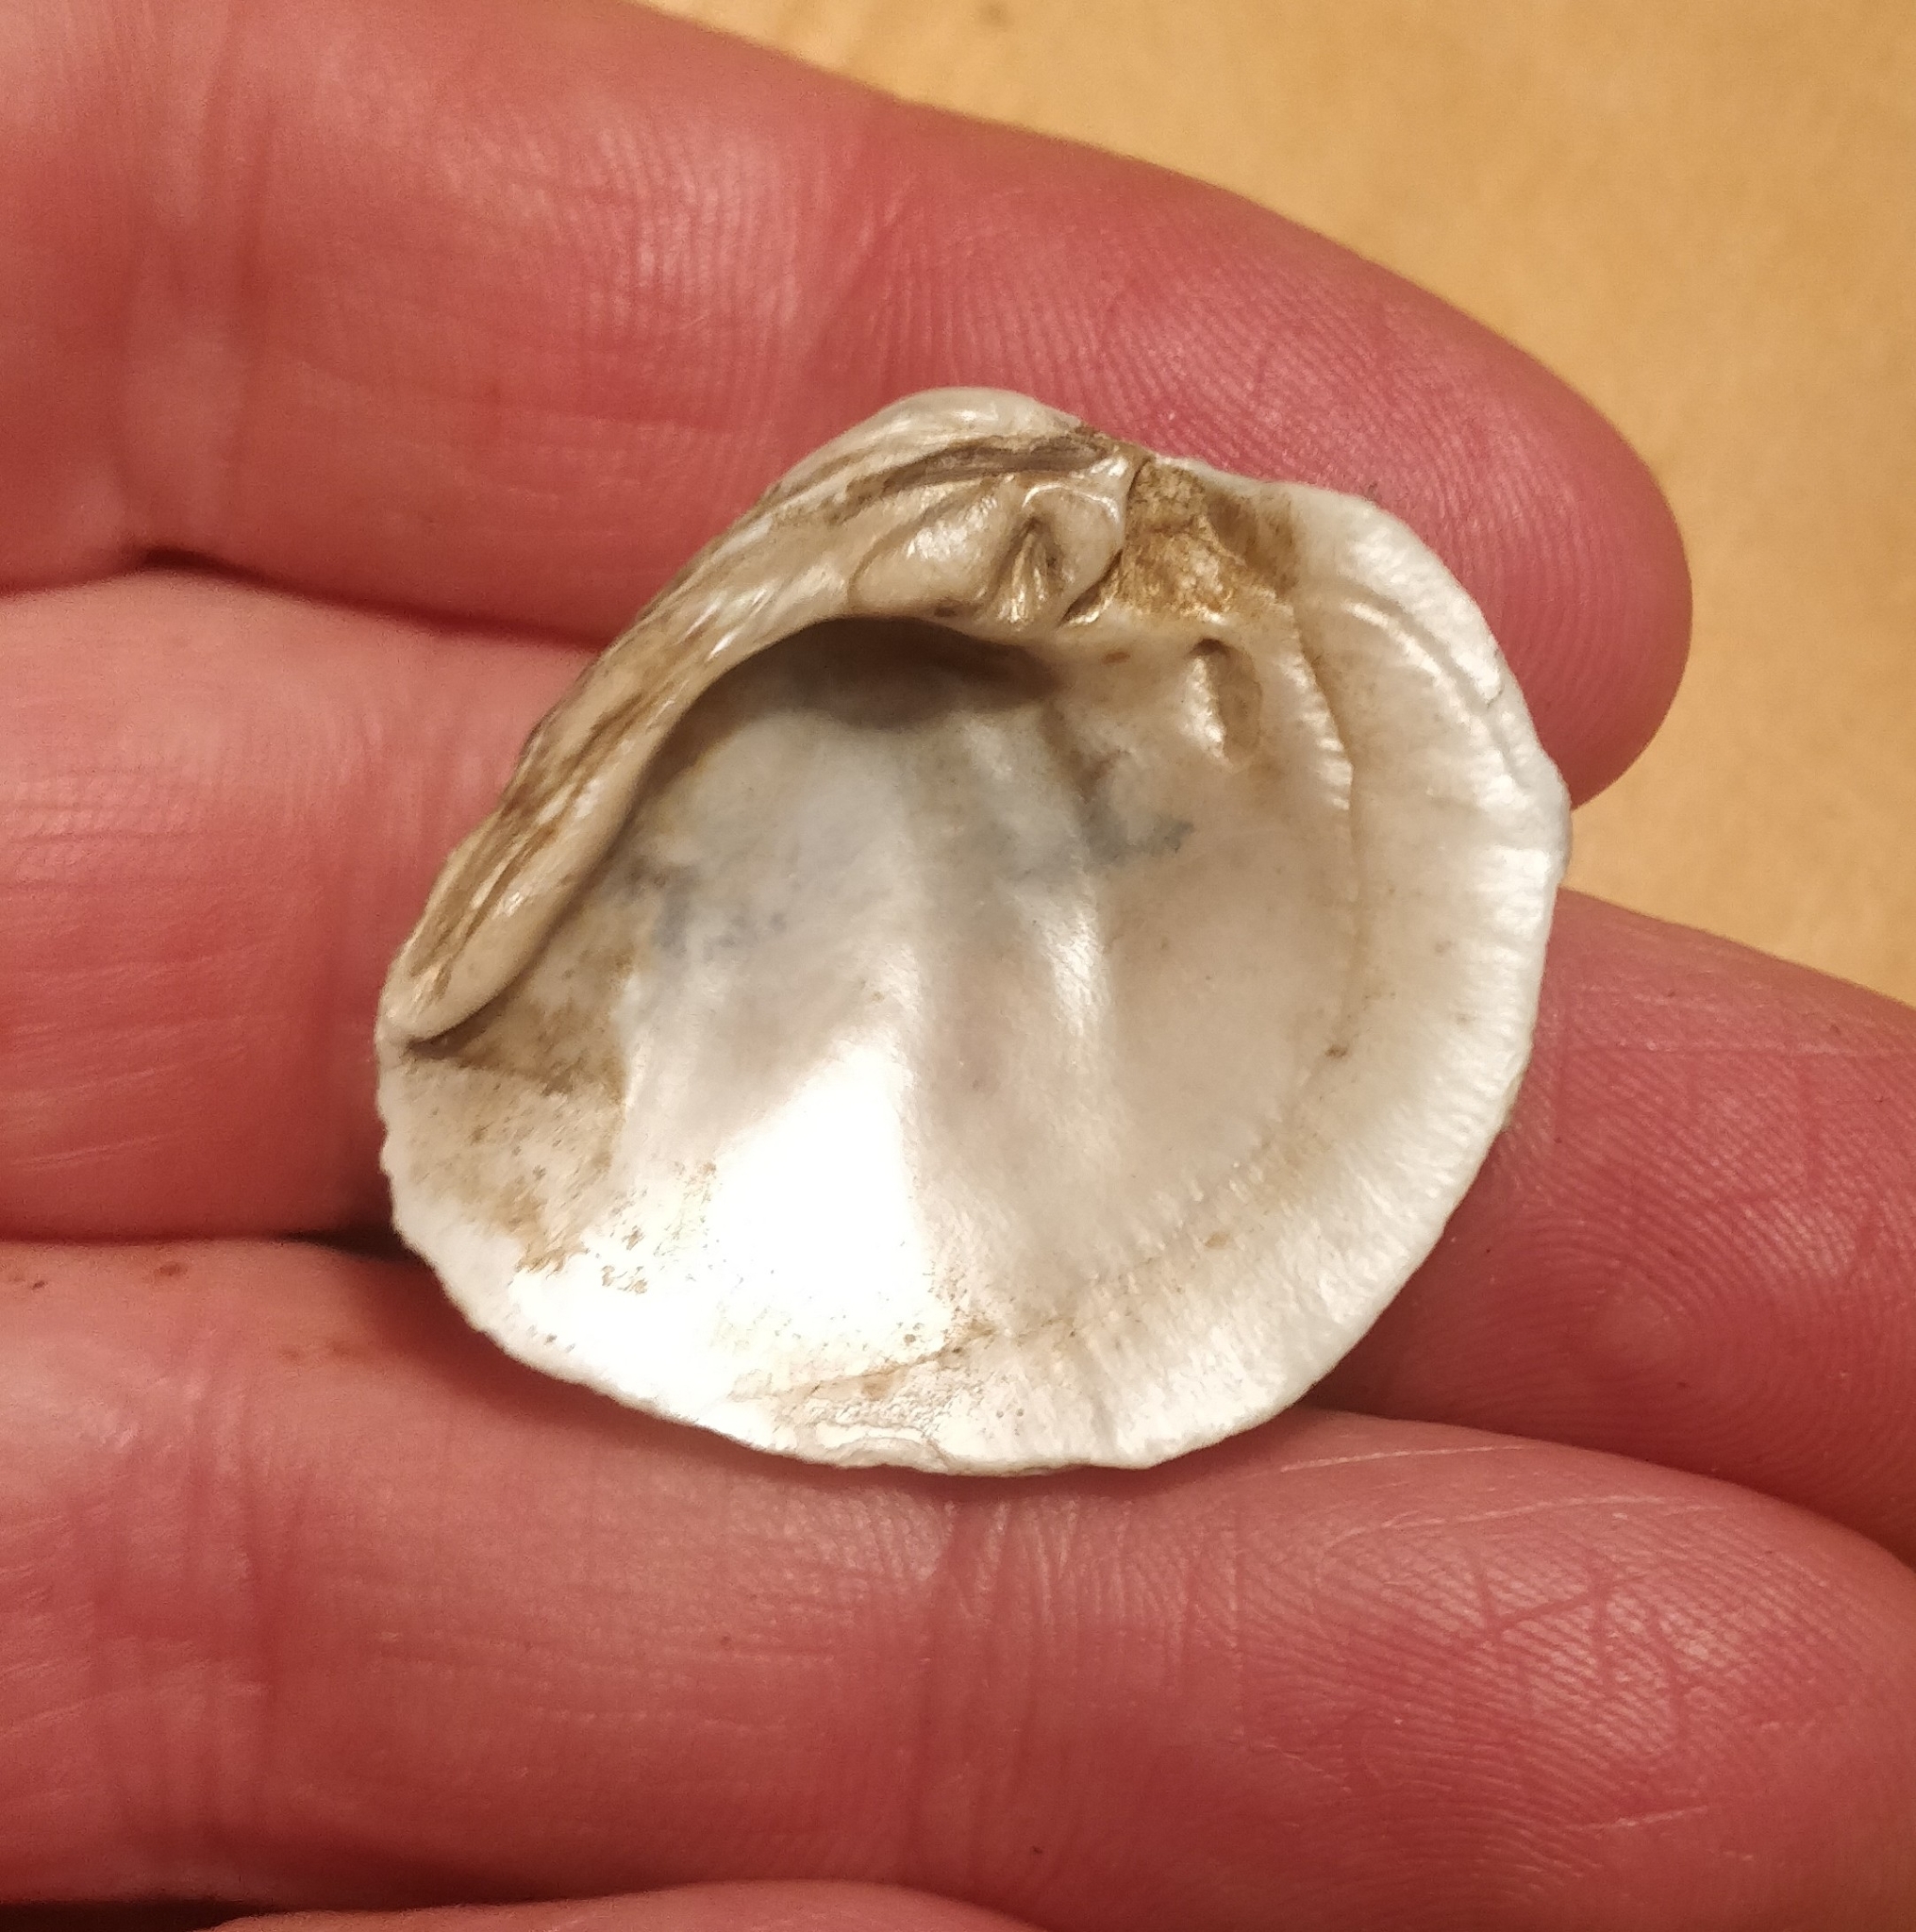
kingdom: Animalia
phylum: Mollusca
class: Bivalvia
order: Unionida
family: Unionidae
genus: Obovaria
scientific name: Obovaria olivaria
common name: Hickorynut
